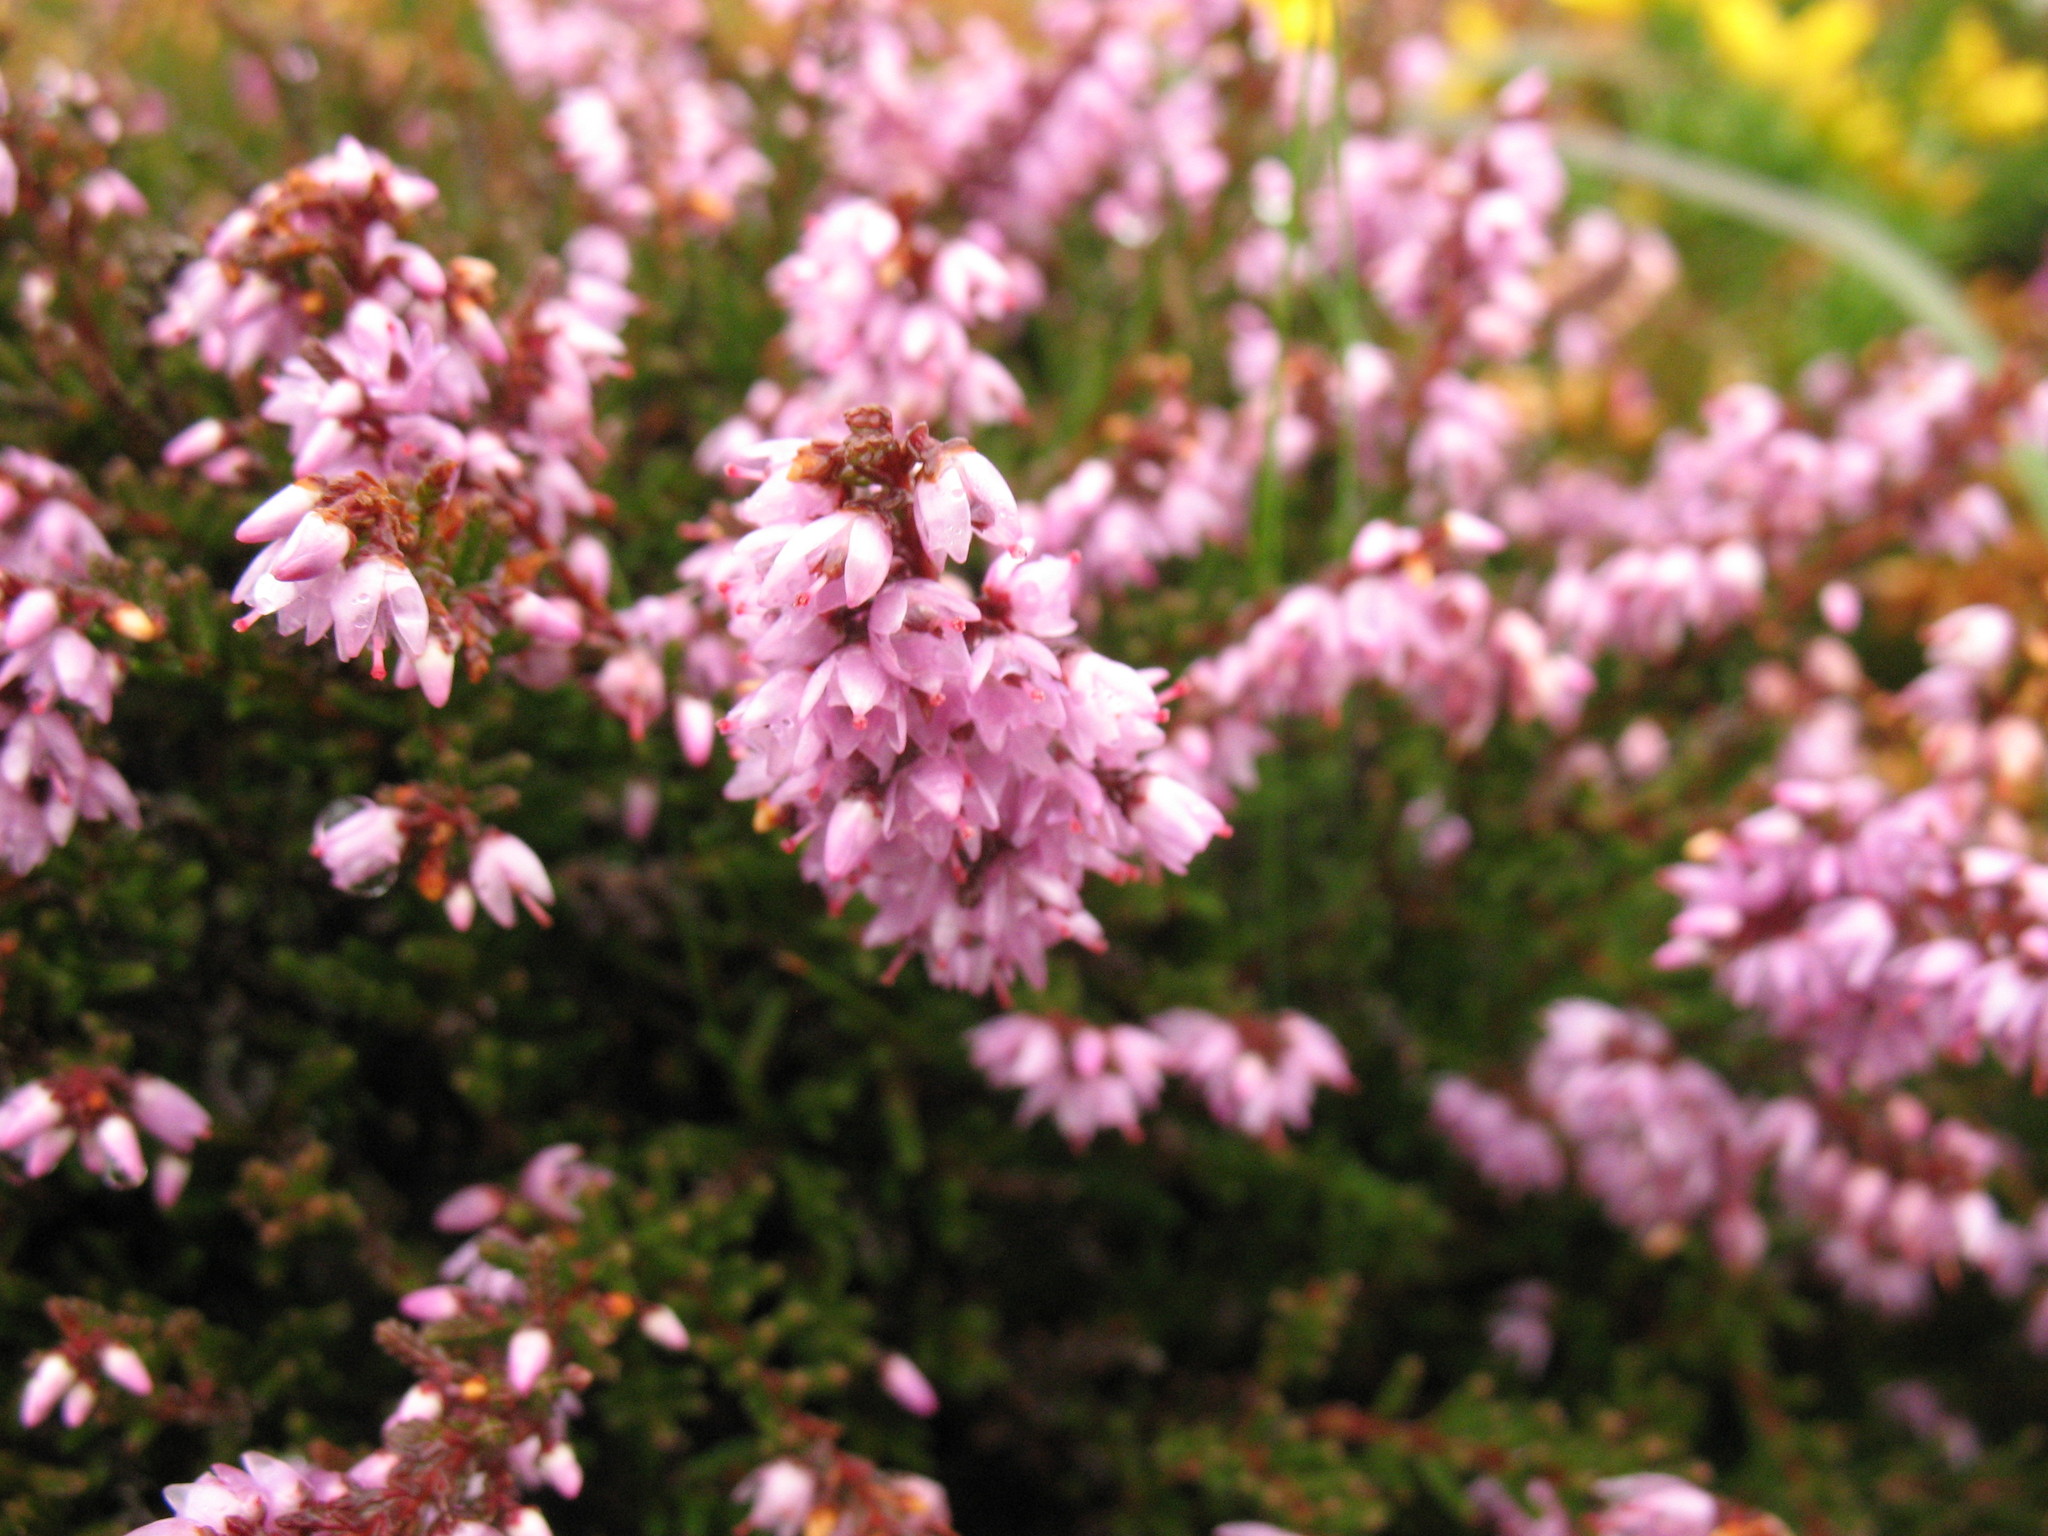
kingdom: Plantae
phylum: Tracheophyta
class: Magnoliopsida
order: Ericales
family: Ericaceae
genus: Calluna
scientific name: Calluna vulgaris
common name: Heather
